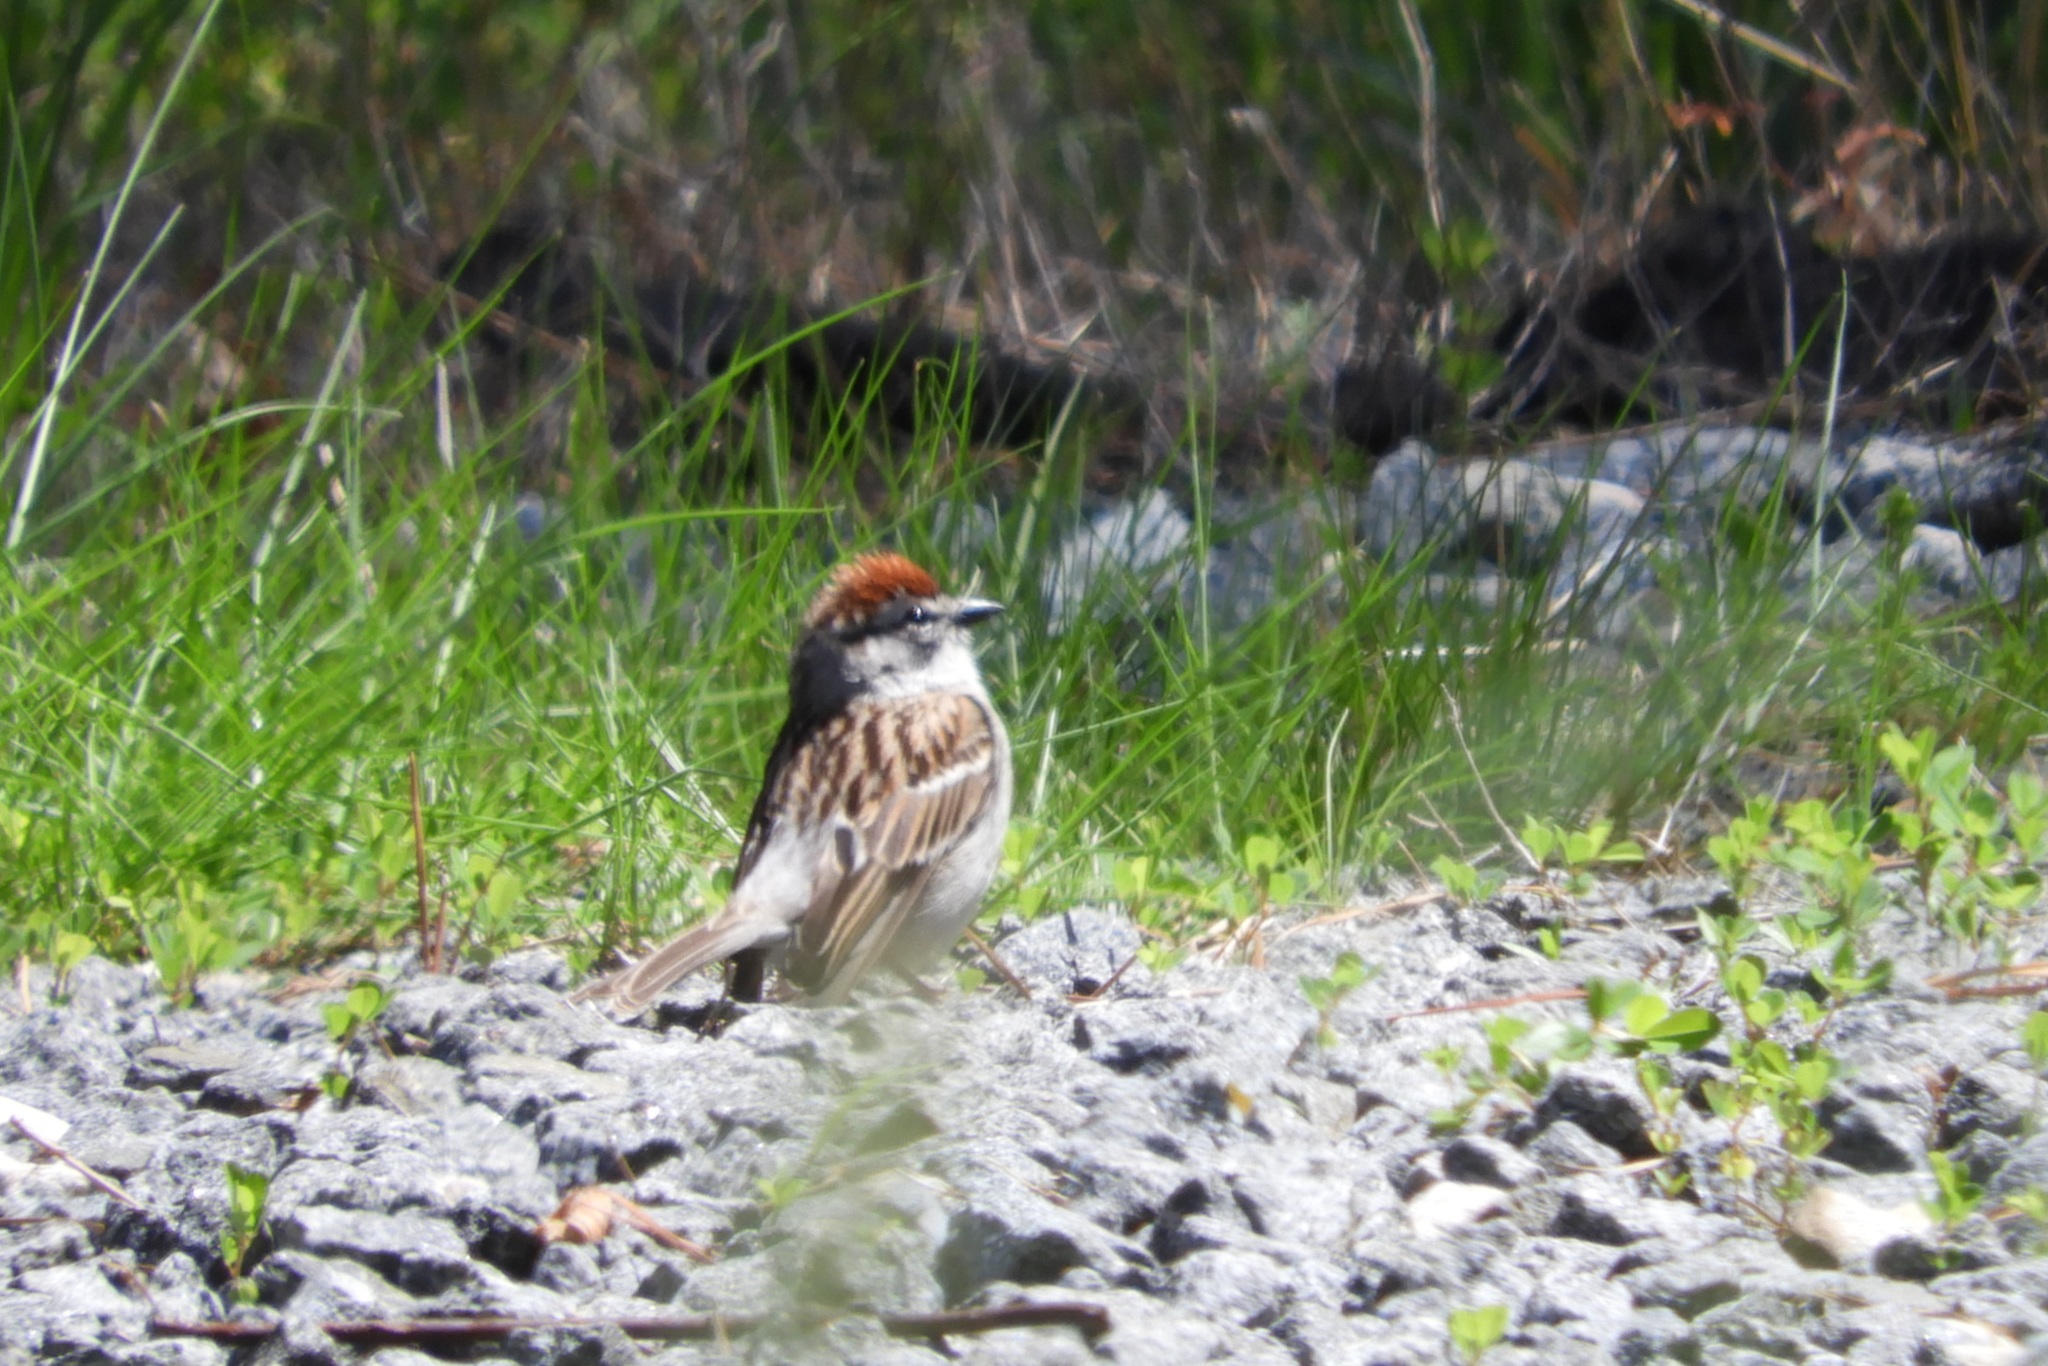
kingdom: Animalia
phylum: Chordata
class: Aves
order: Passeriformes
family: Passerellidae
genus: Spizella
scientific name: Spizella passerina
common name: Chipping sparrow
